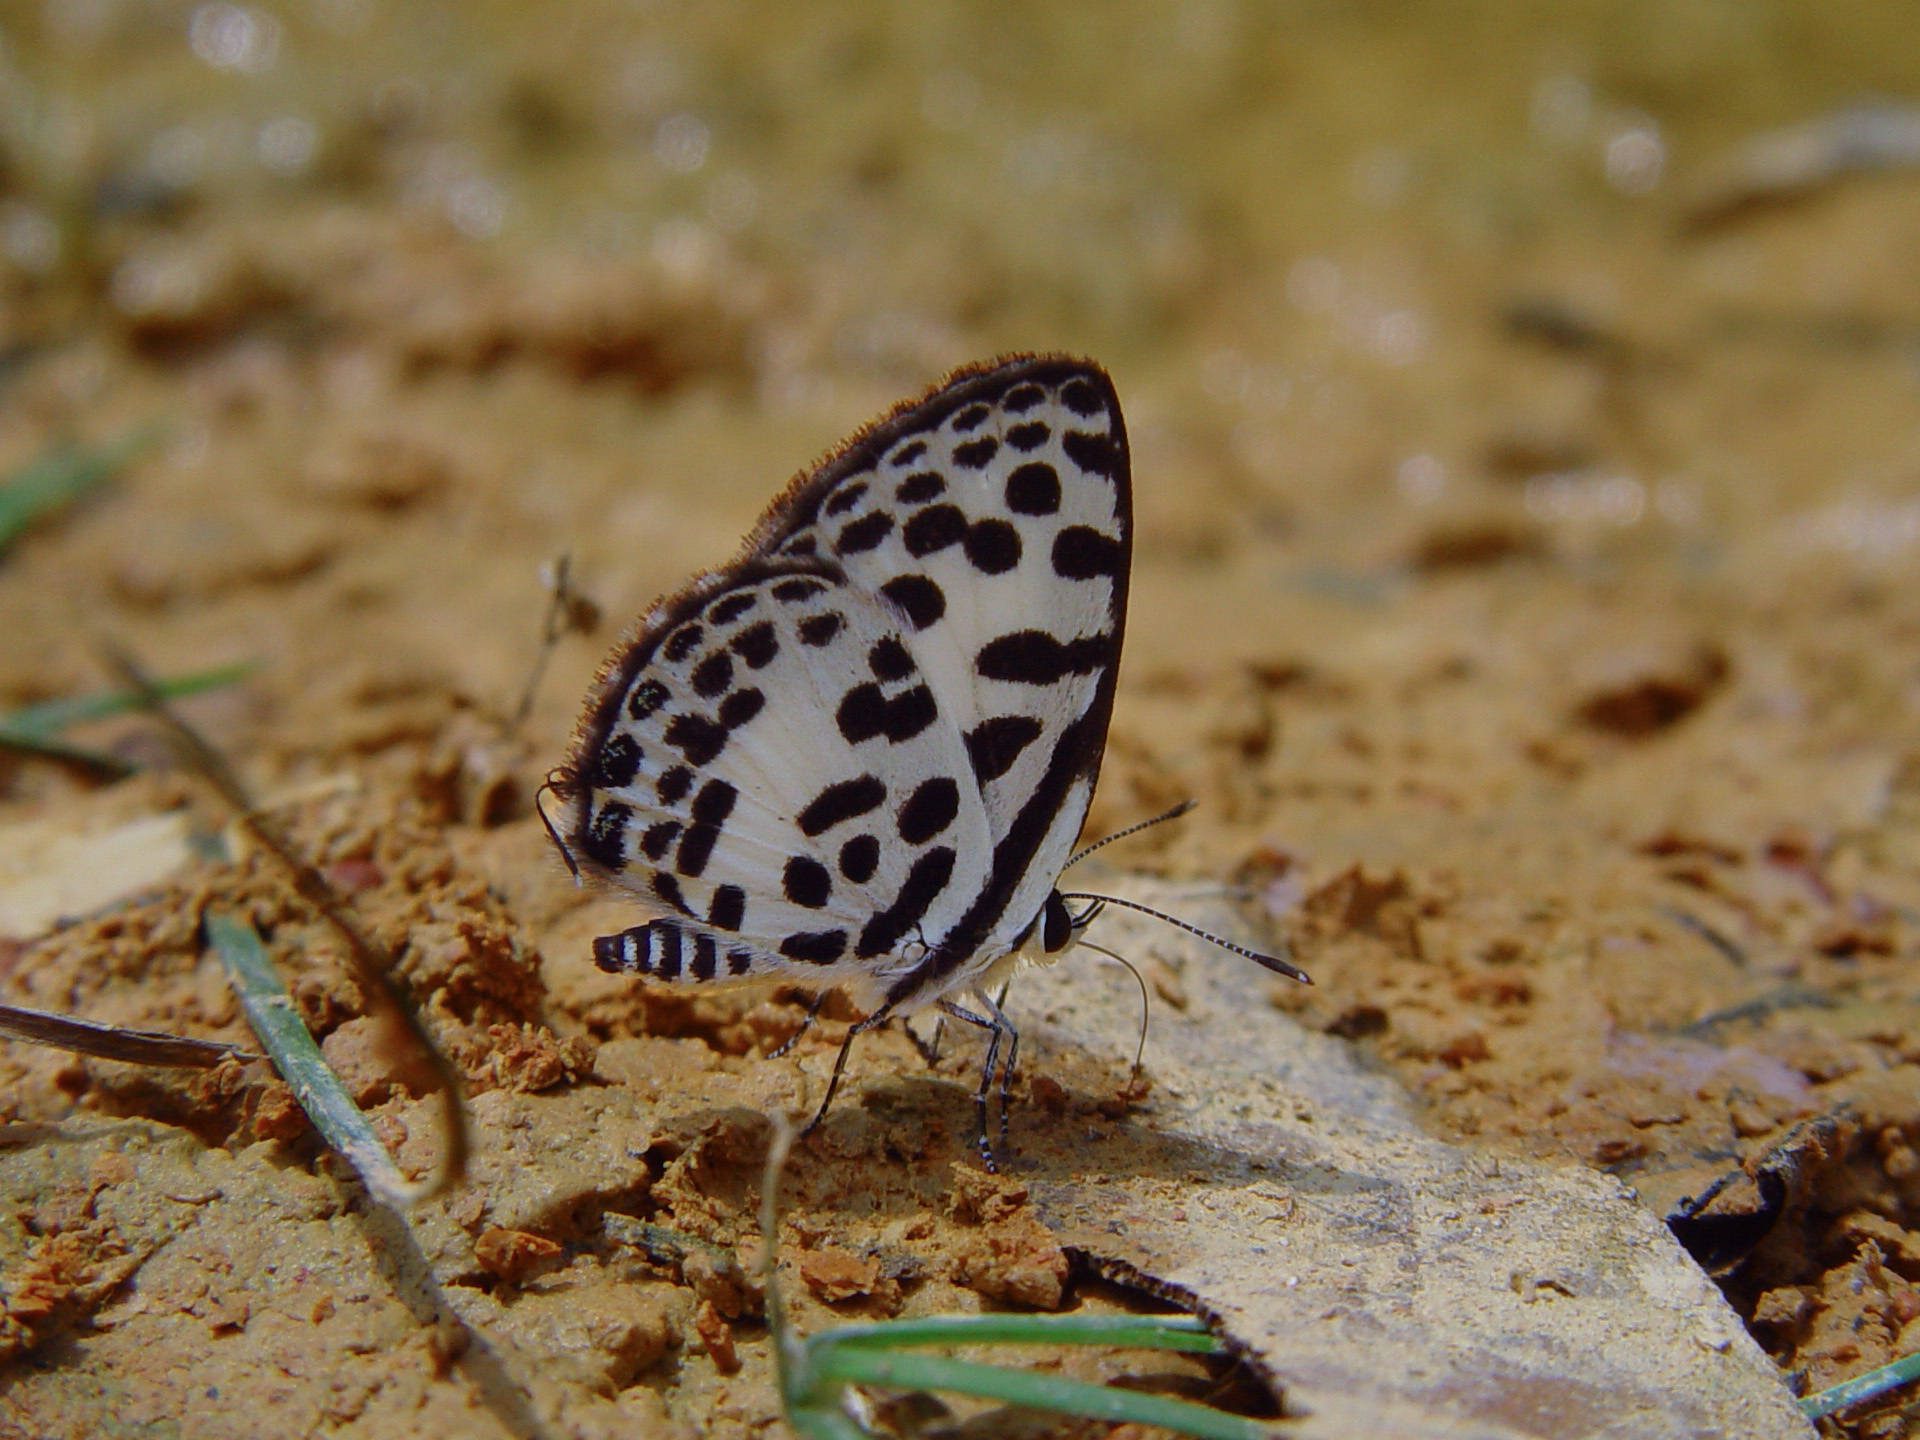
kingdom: Animalia
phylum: Arthropoda
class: Insecta
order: Lepidoptera
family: Lycaenidae
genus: Castalius
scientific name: Castalius rosimon
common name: Common pierrot
